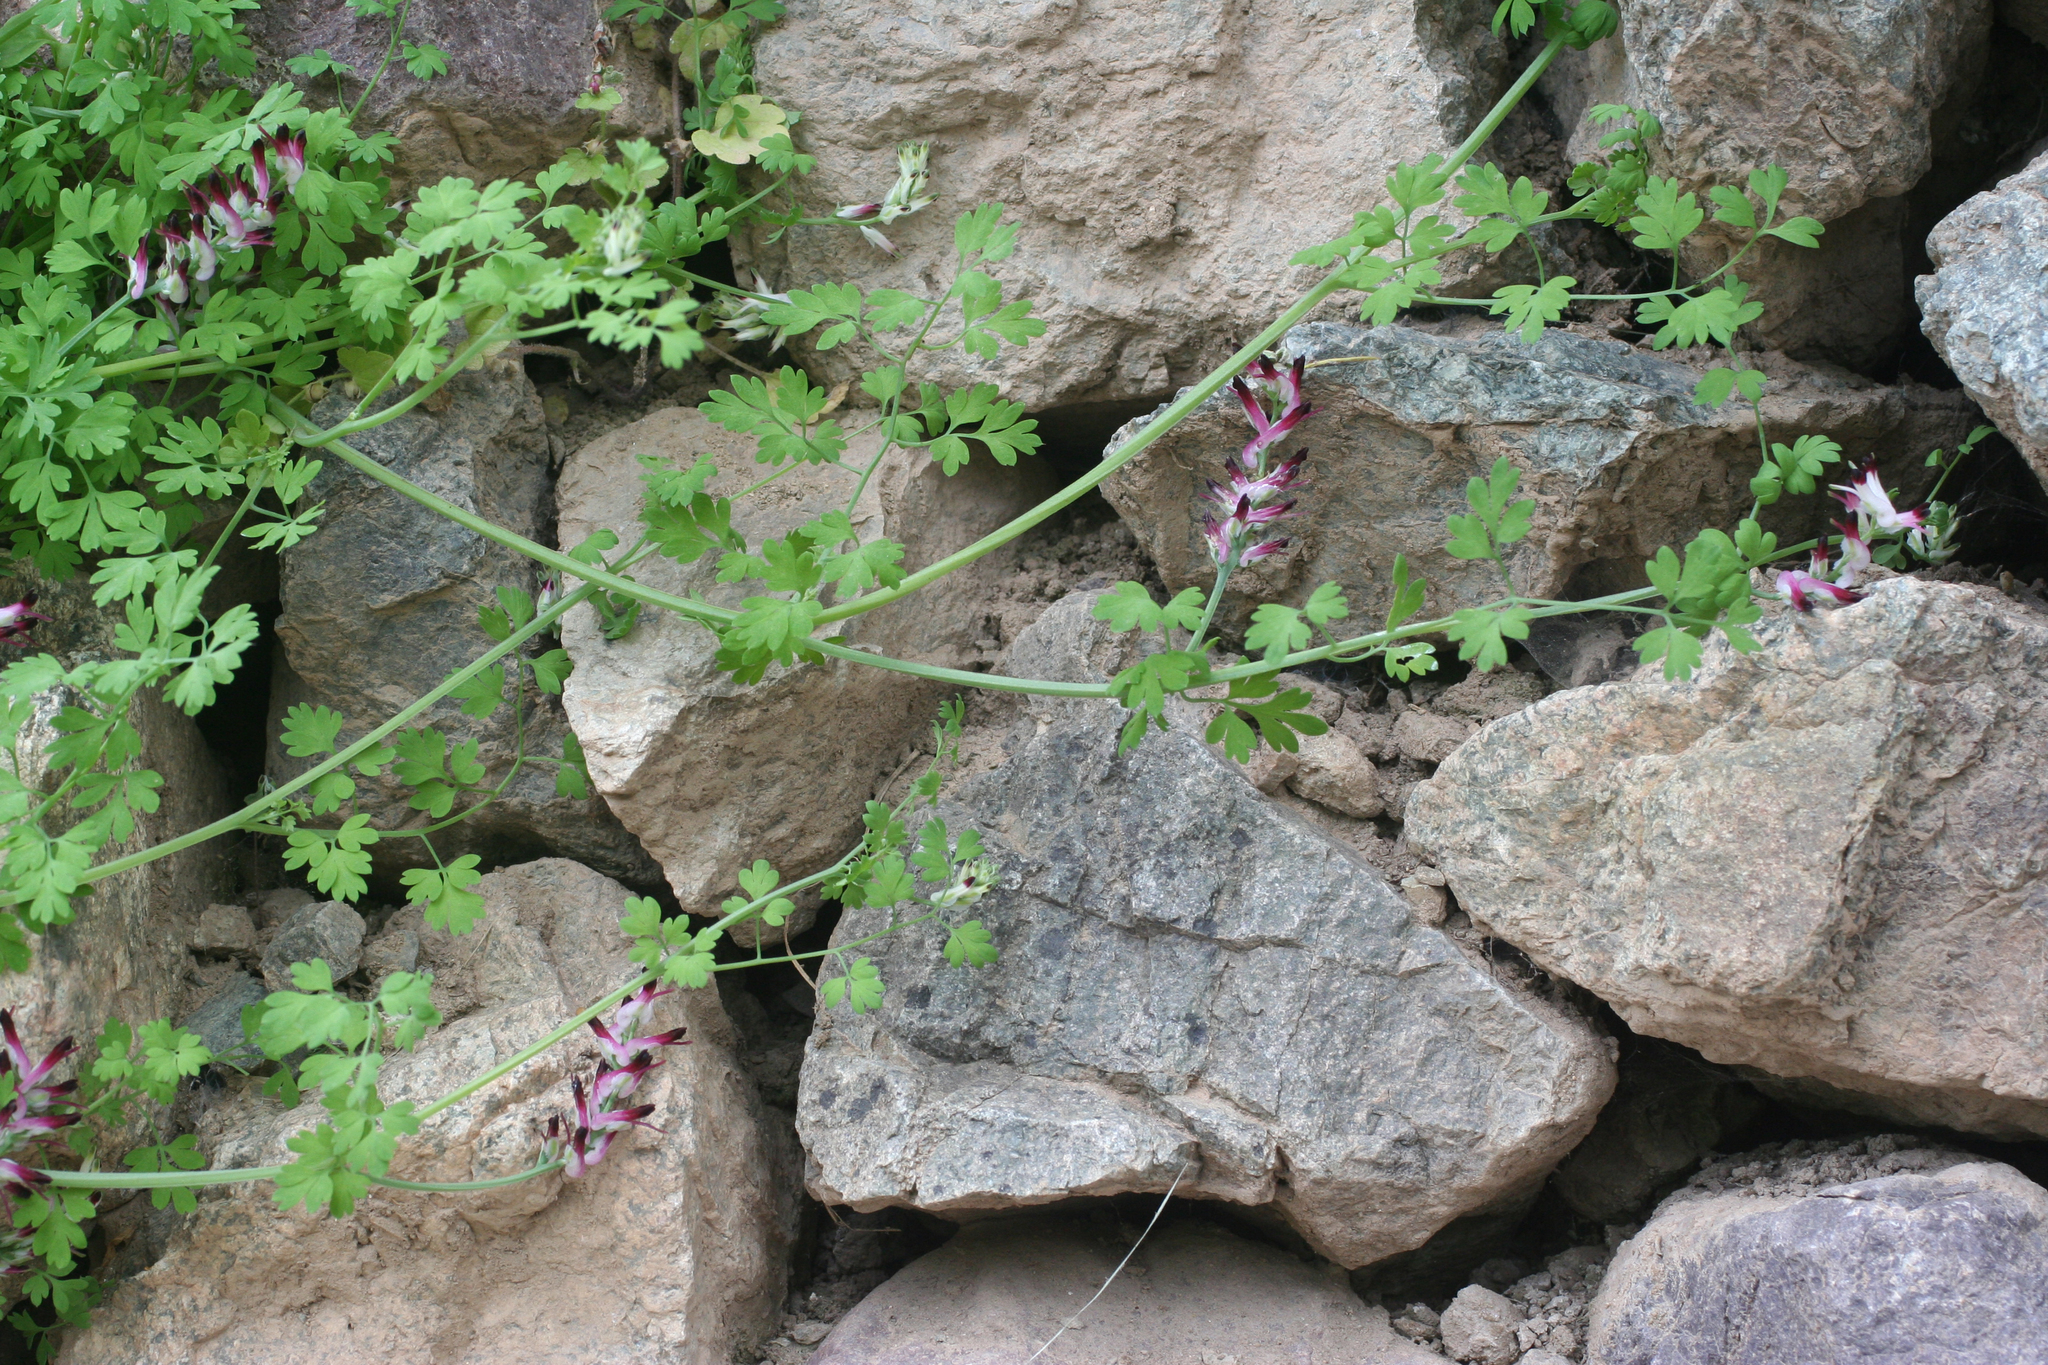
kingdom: Plantae
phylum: Tracheophyta
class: Magnoliopsida
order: Ranunculales
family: Papaveraceae
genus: Fumaria
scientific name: Fumaria capreolata
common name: White ramping-fumitory
